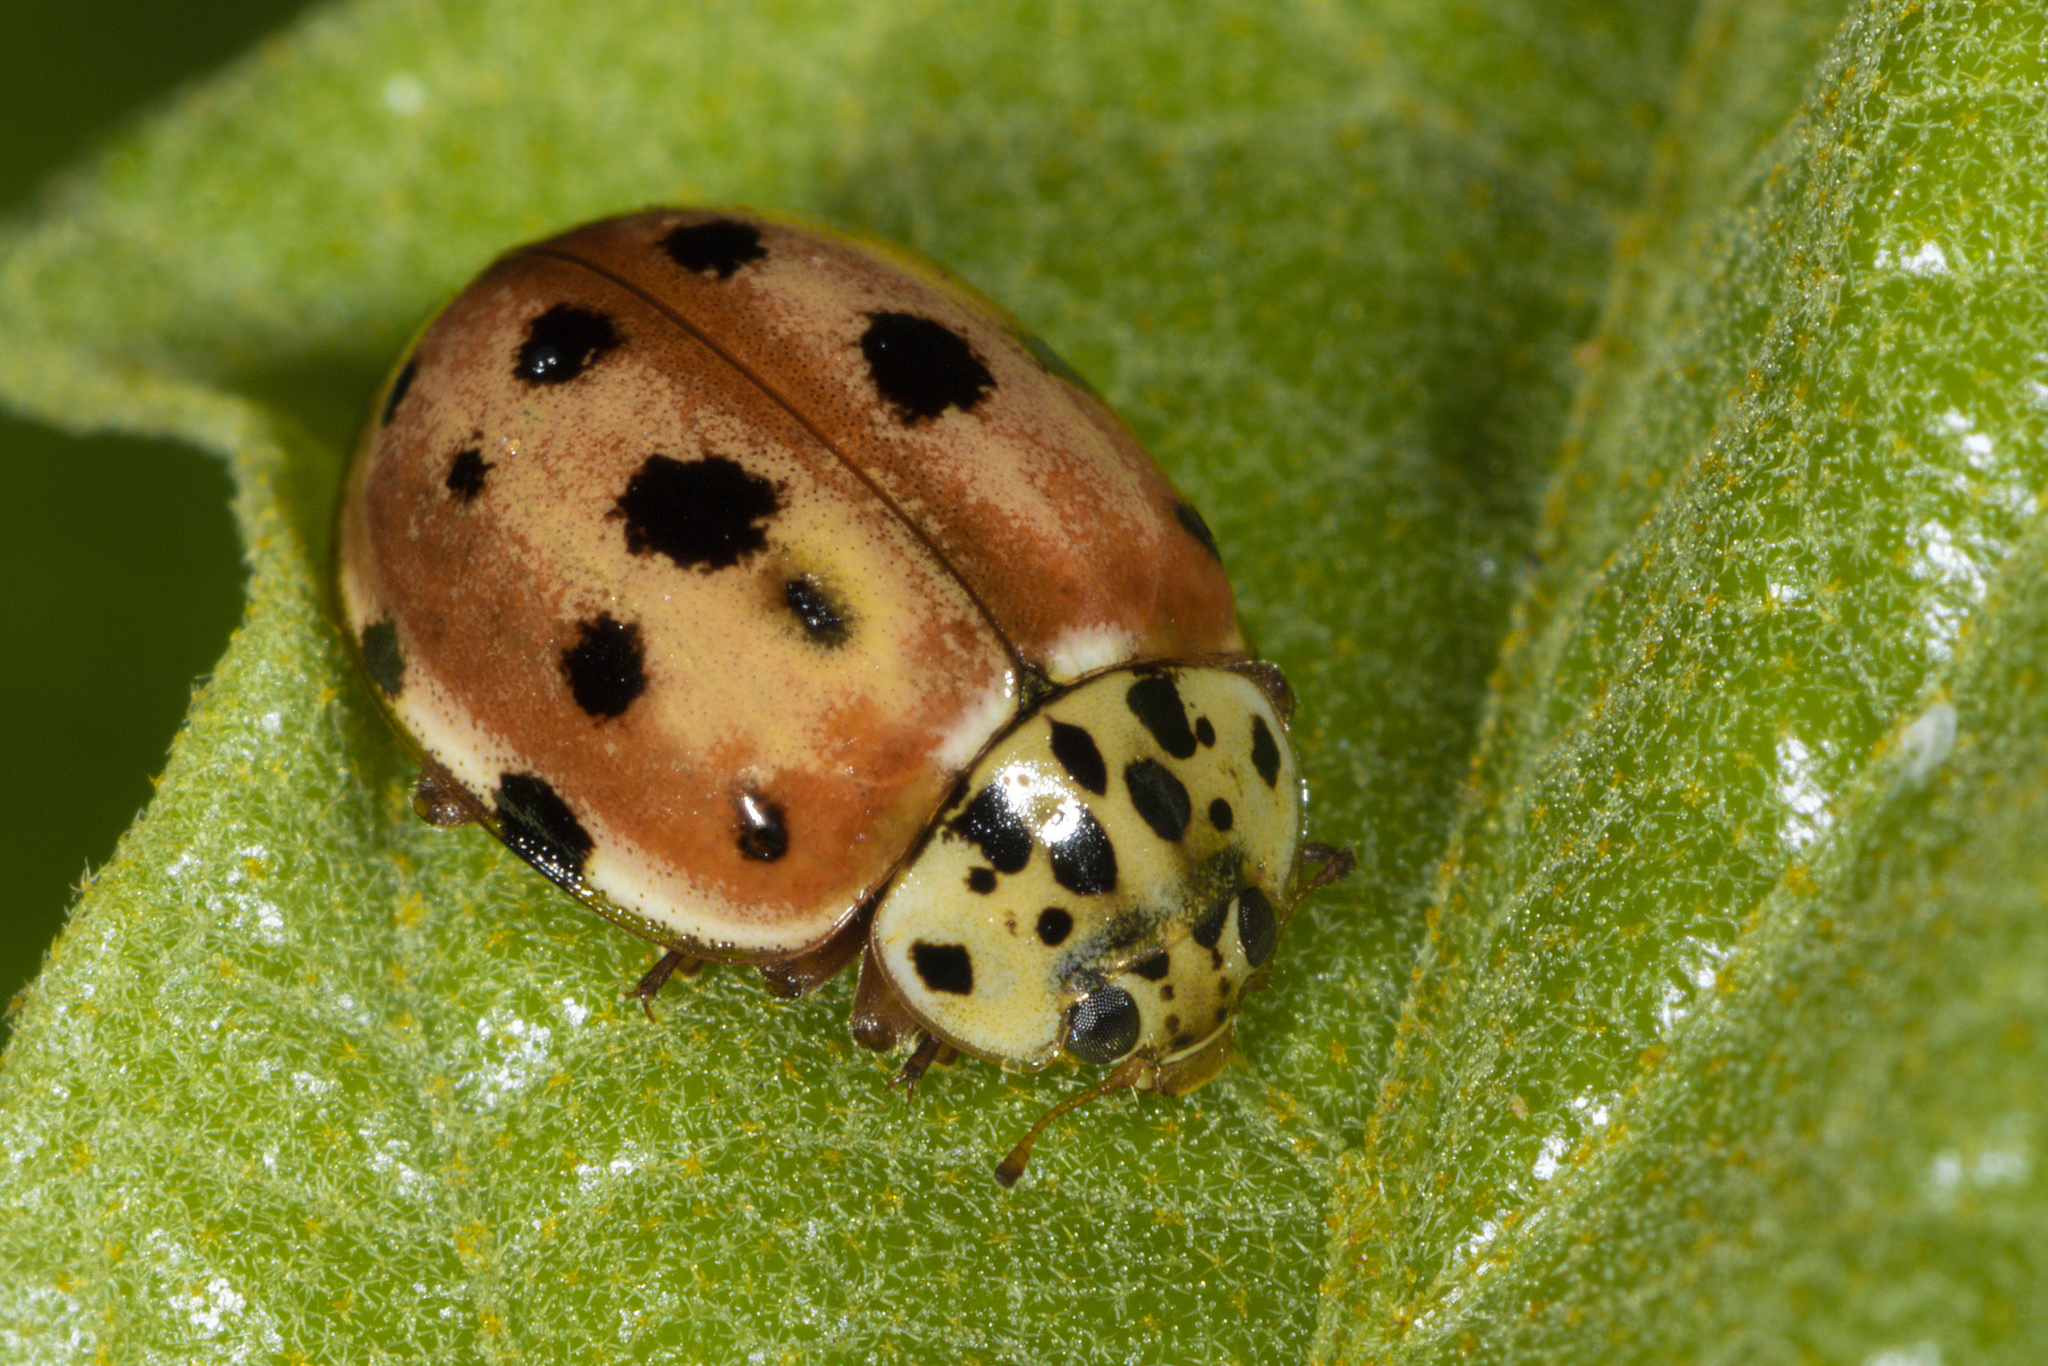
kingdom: Animalia
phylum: Arthropoda
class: Insecta
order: Coleoptera
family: Coccinellidae
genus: Harmonia
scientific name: Harmonia quadripunctata
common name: Cream-streaked ladybird
